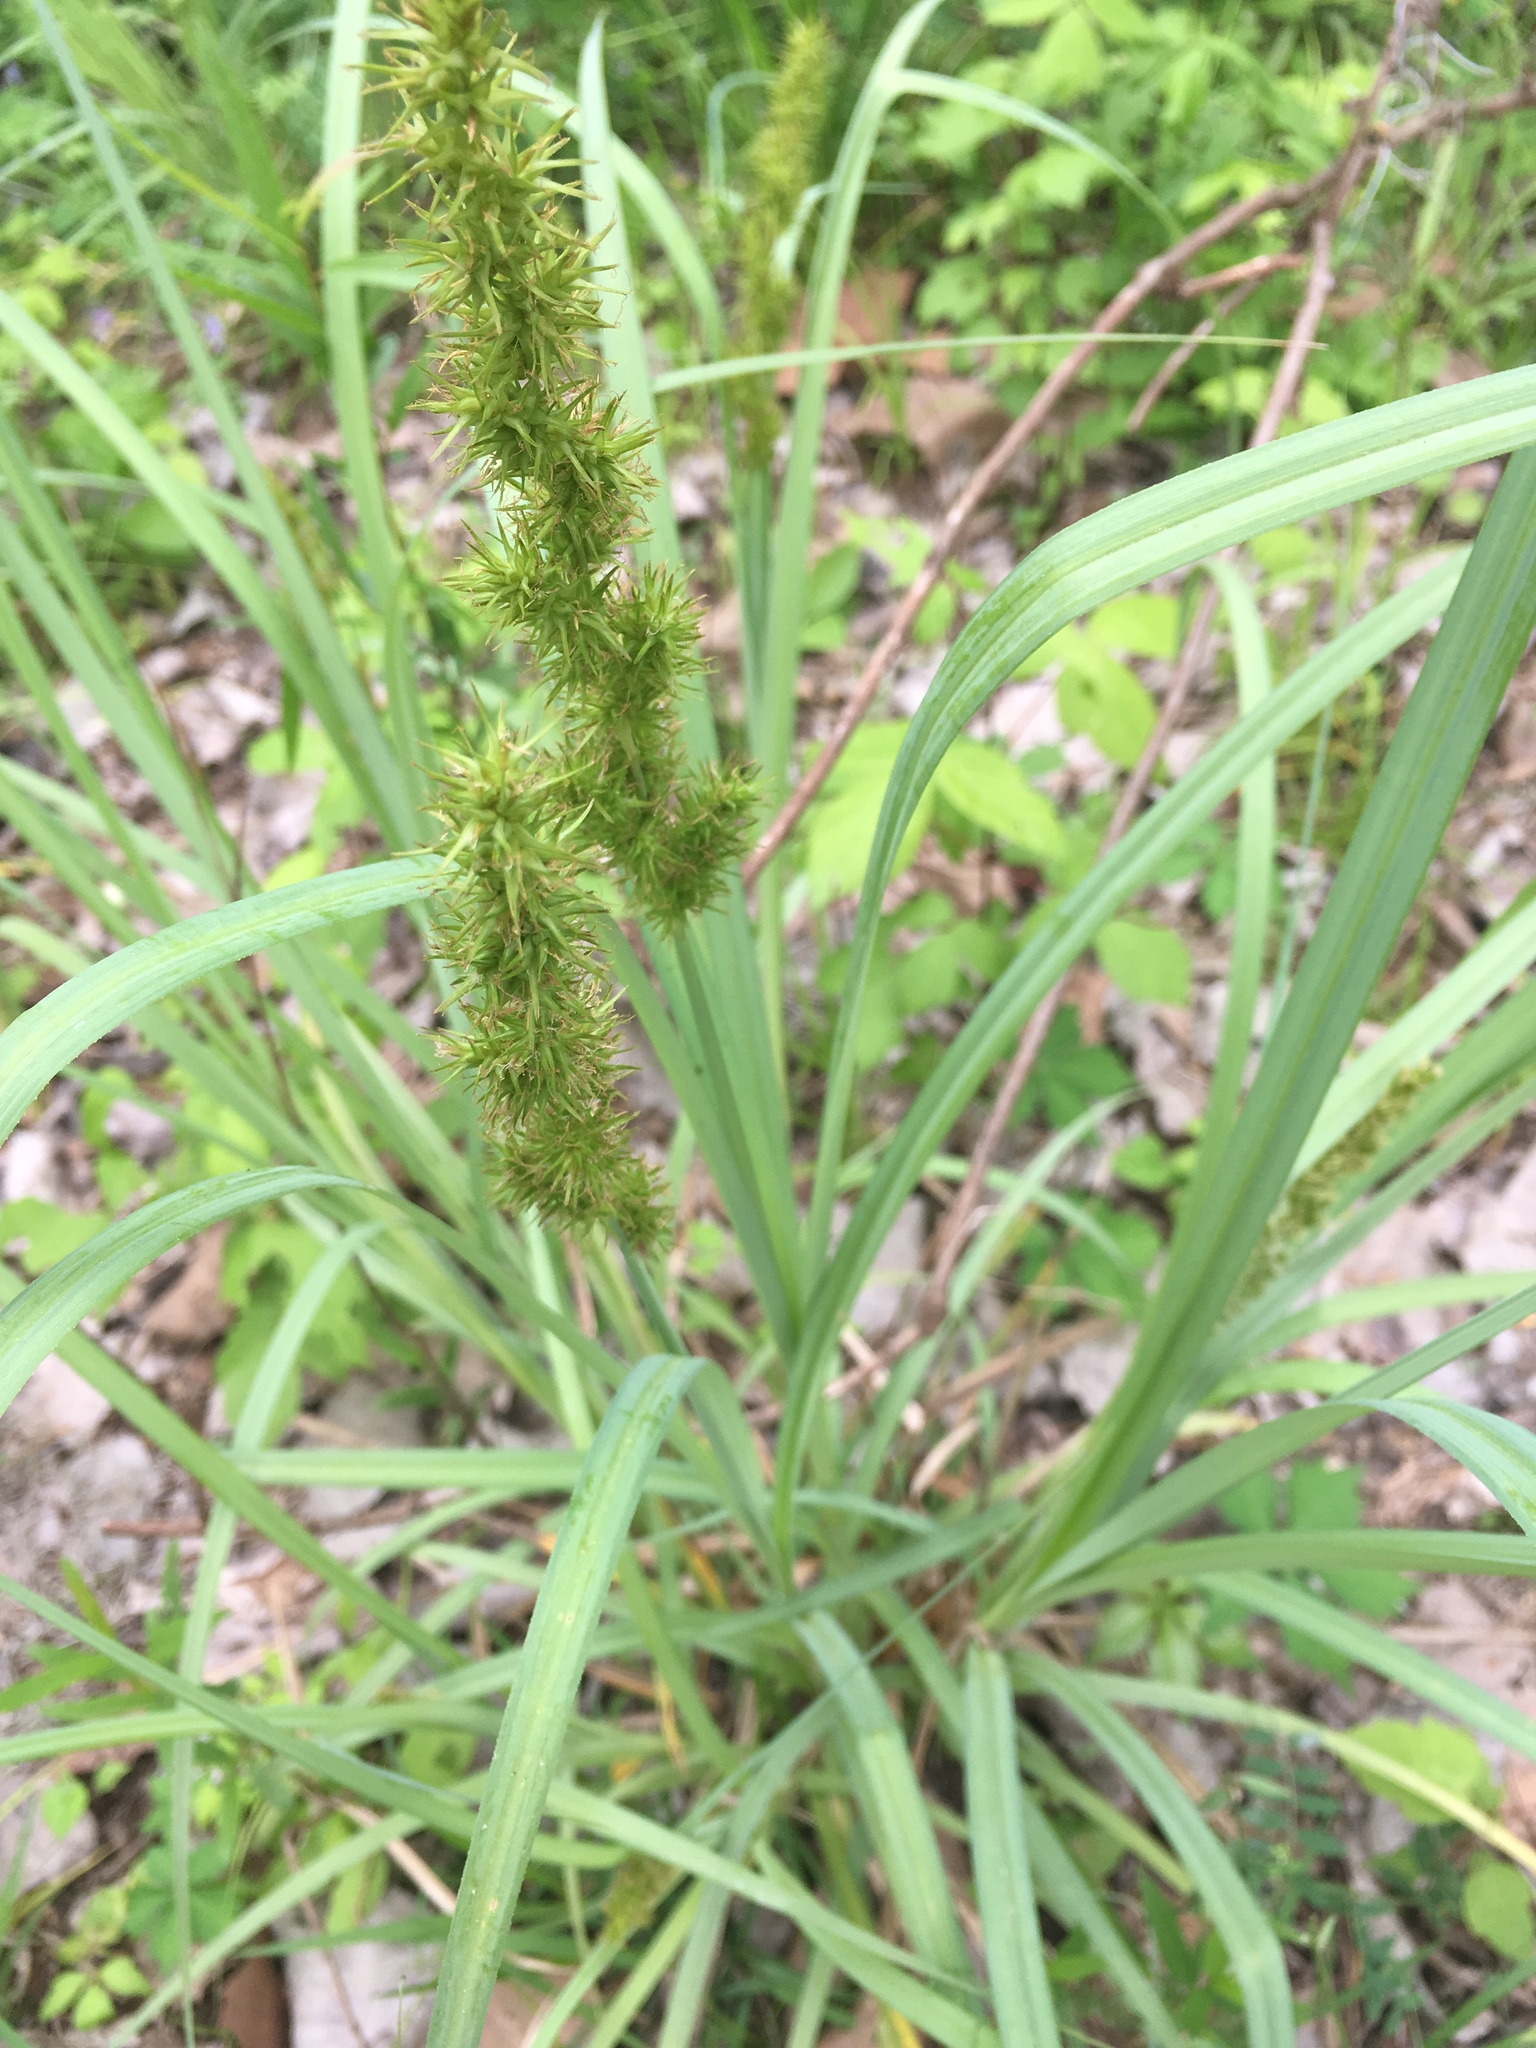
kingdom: Plantae
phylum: Tracheophyta
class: Liliopsida
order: Poales
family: Cyperaceae
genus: Carex
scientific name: Carex crus-corvi
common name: Crow-spur sedge
